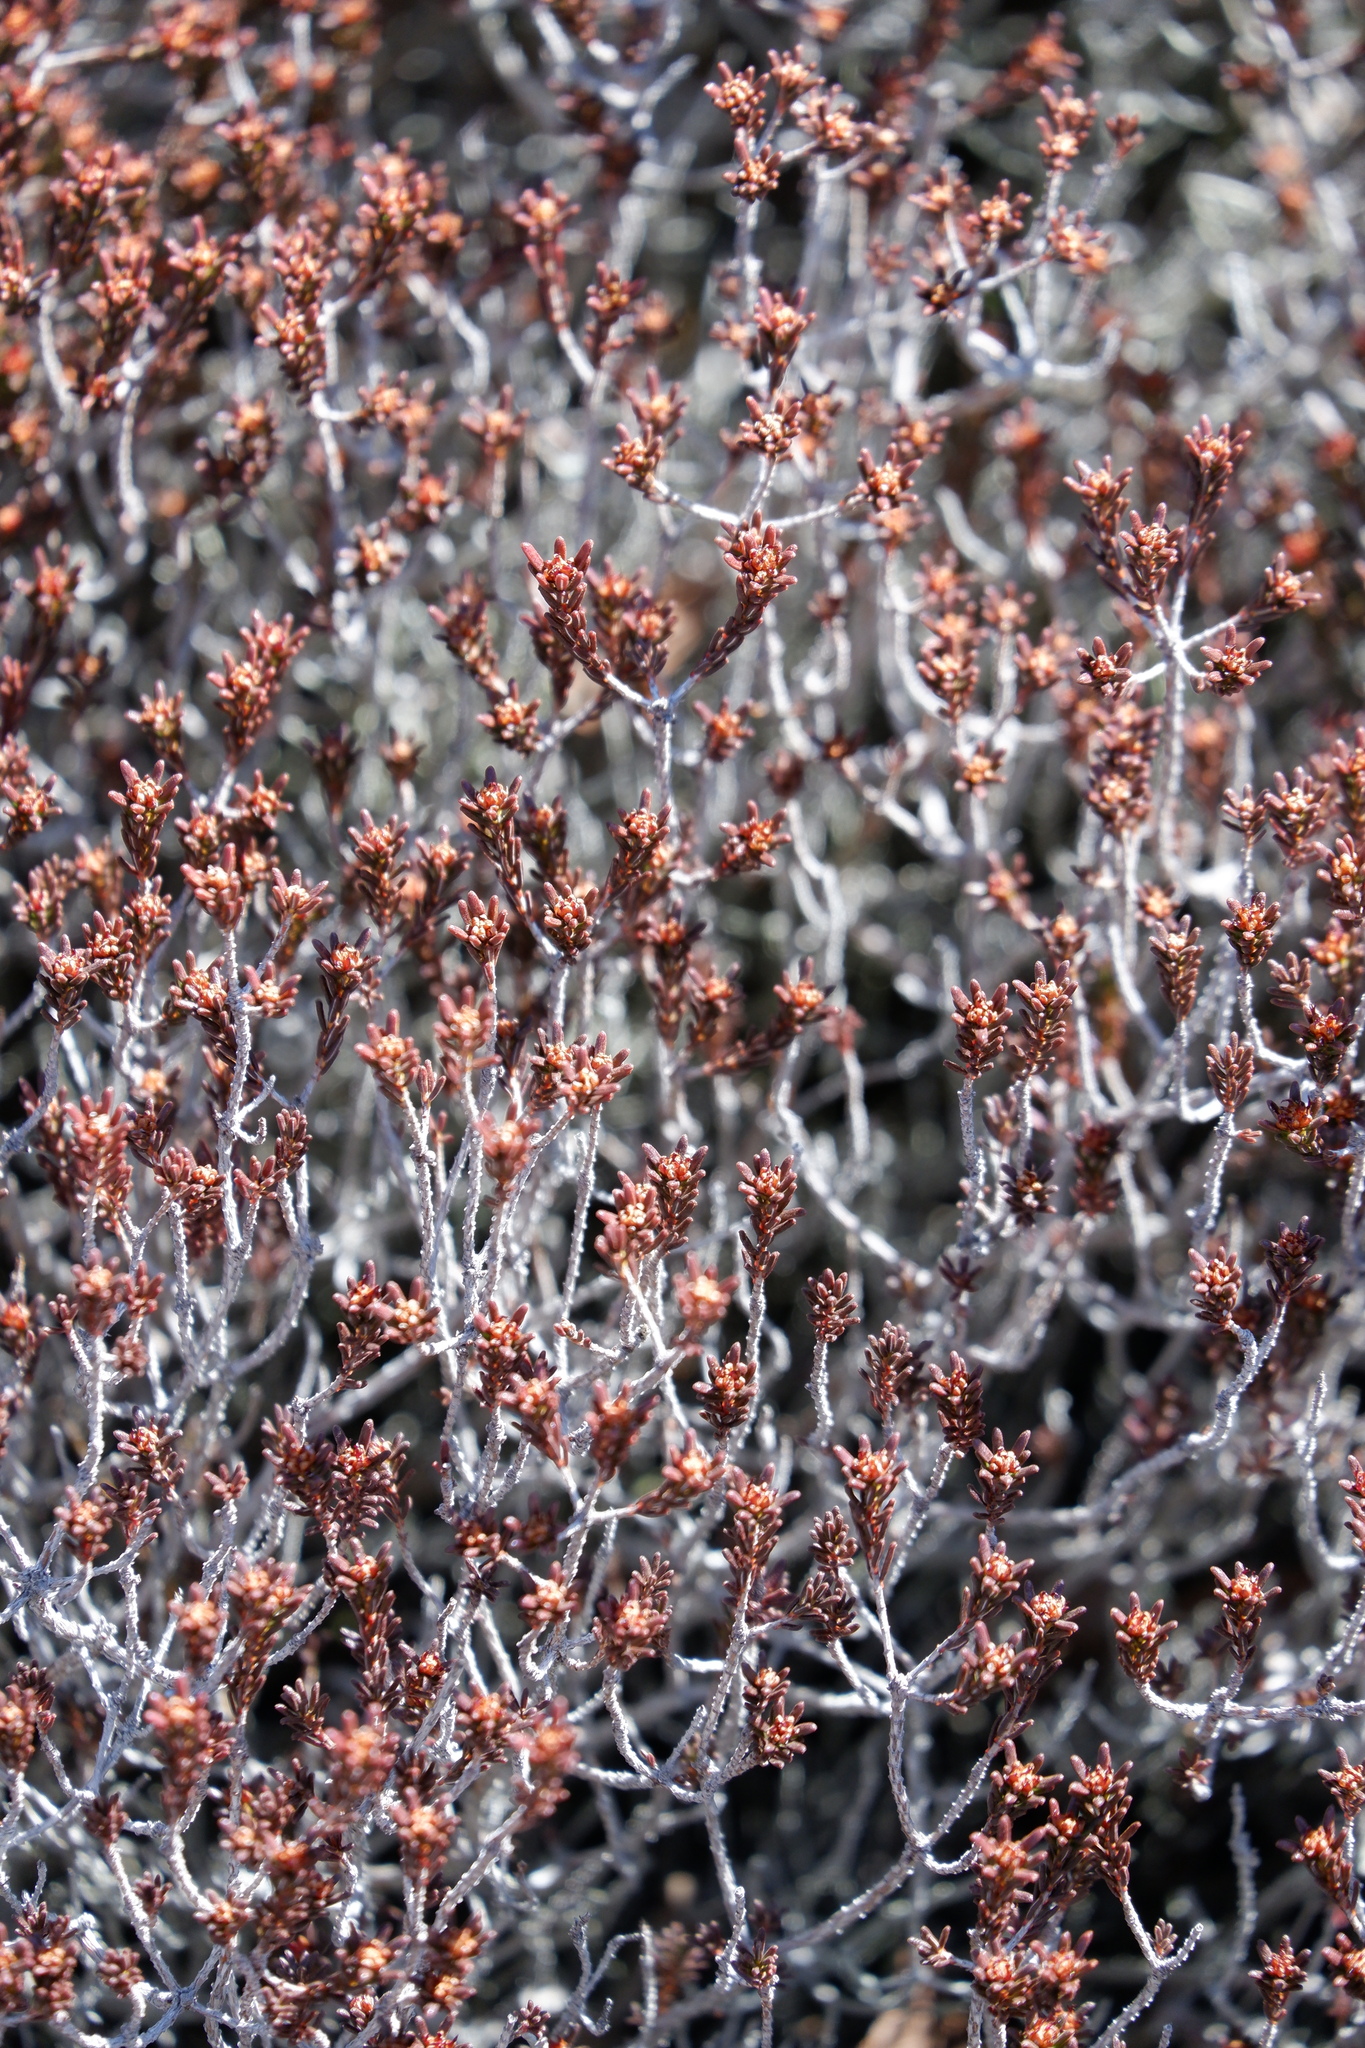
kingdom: Plantae
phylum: Tracheophyta
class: Magnoliopsida
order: Ericales
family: Ericaceae
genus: Corema
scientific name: Corema conradii
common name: Broom-crowberry
